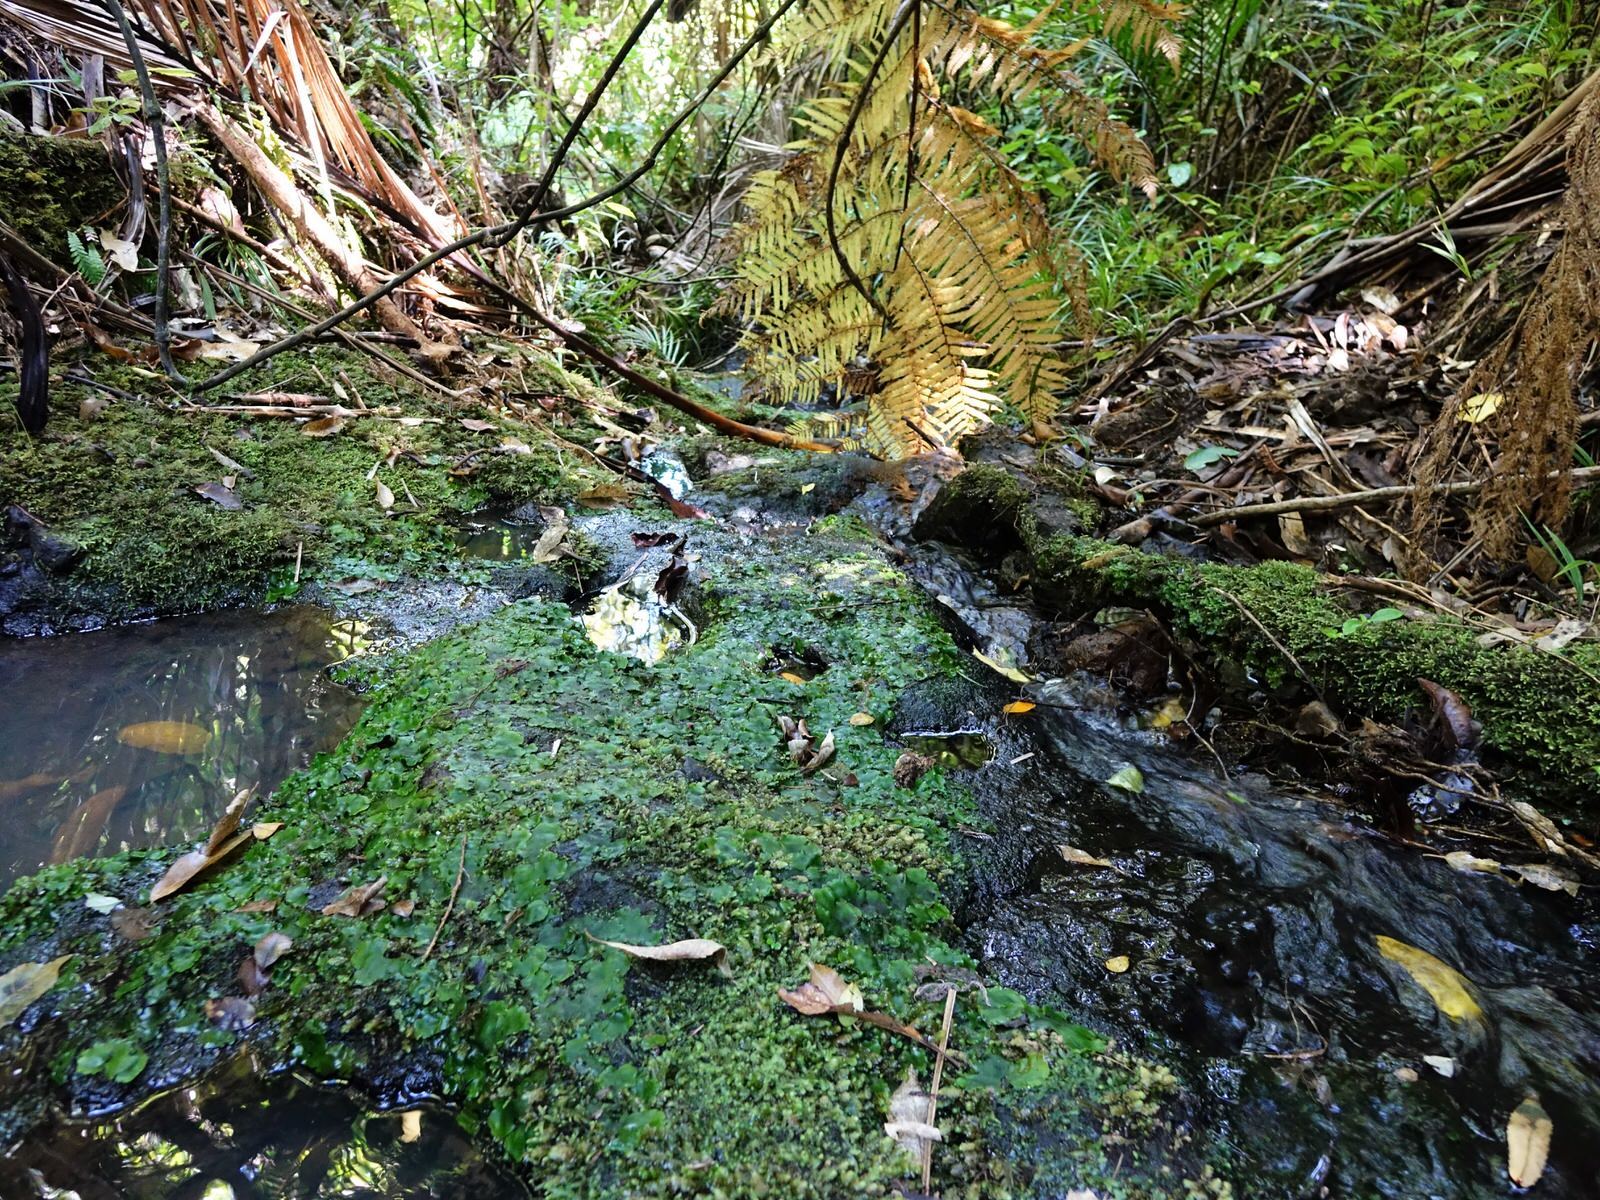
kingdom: Plantae
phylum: Marchantiophyta
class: Marchantiopsida
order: Marchantiales
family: Monocleaceae
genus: Monoclea
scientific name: Monoclea forsteri
